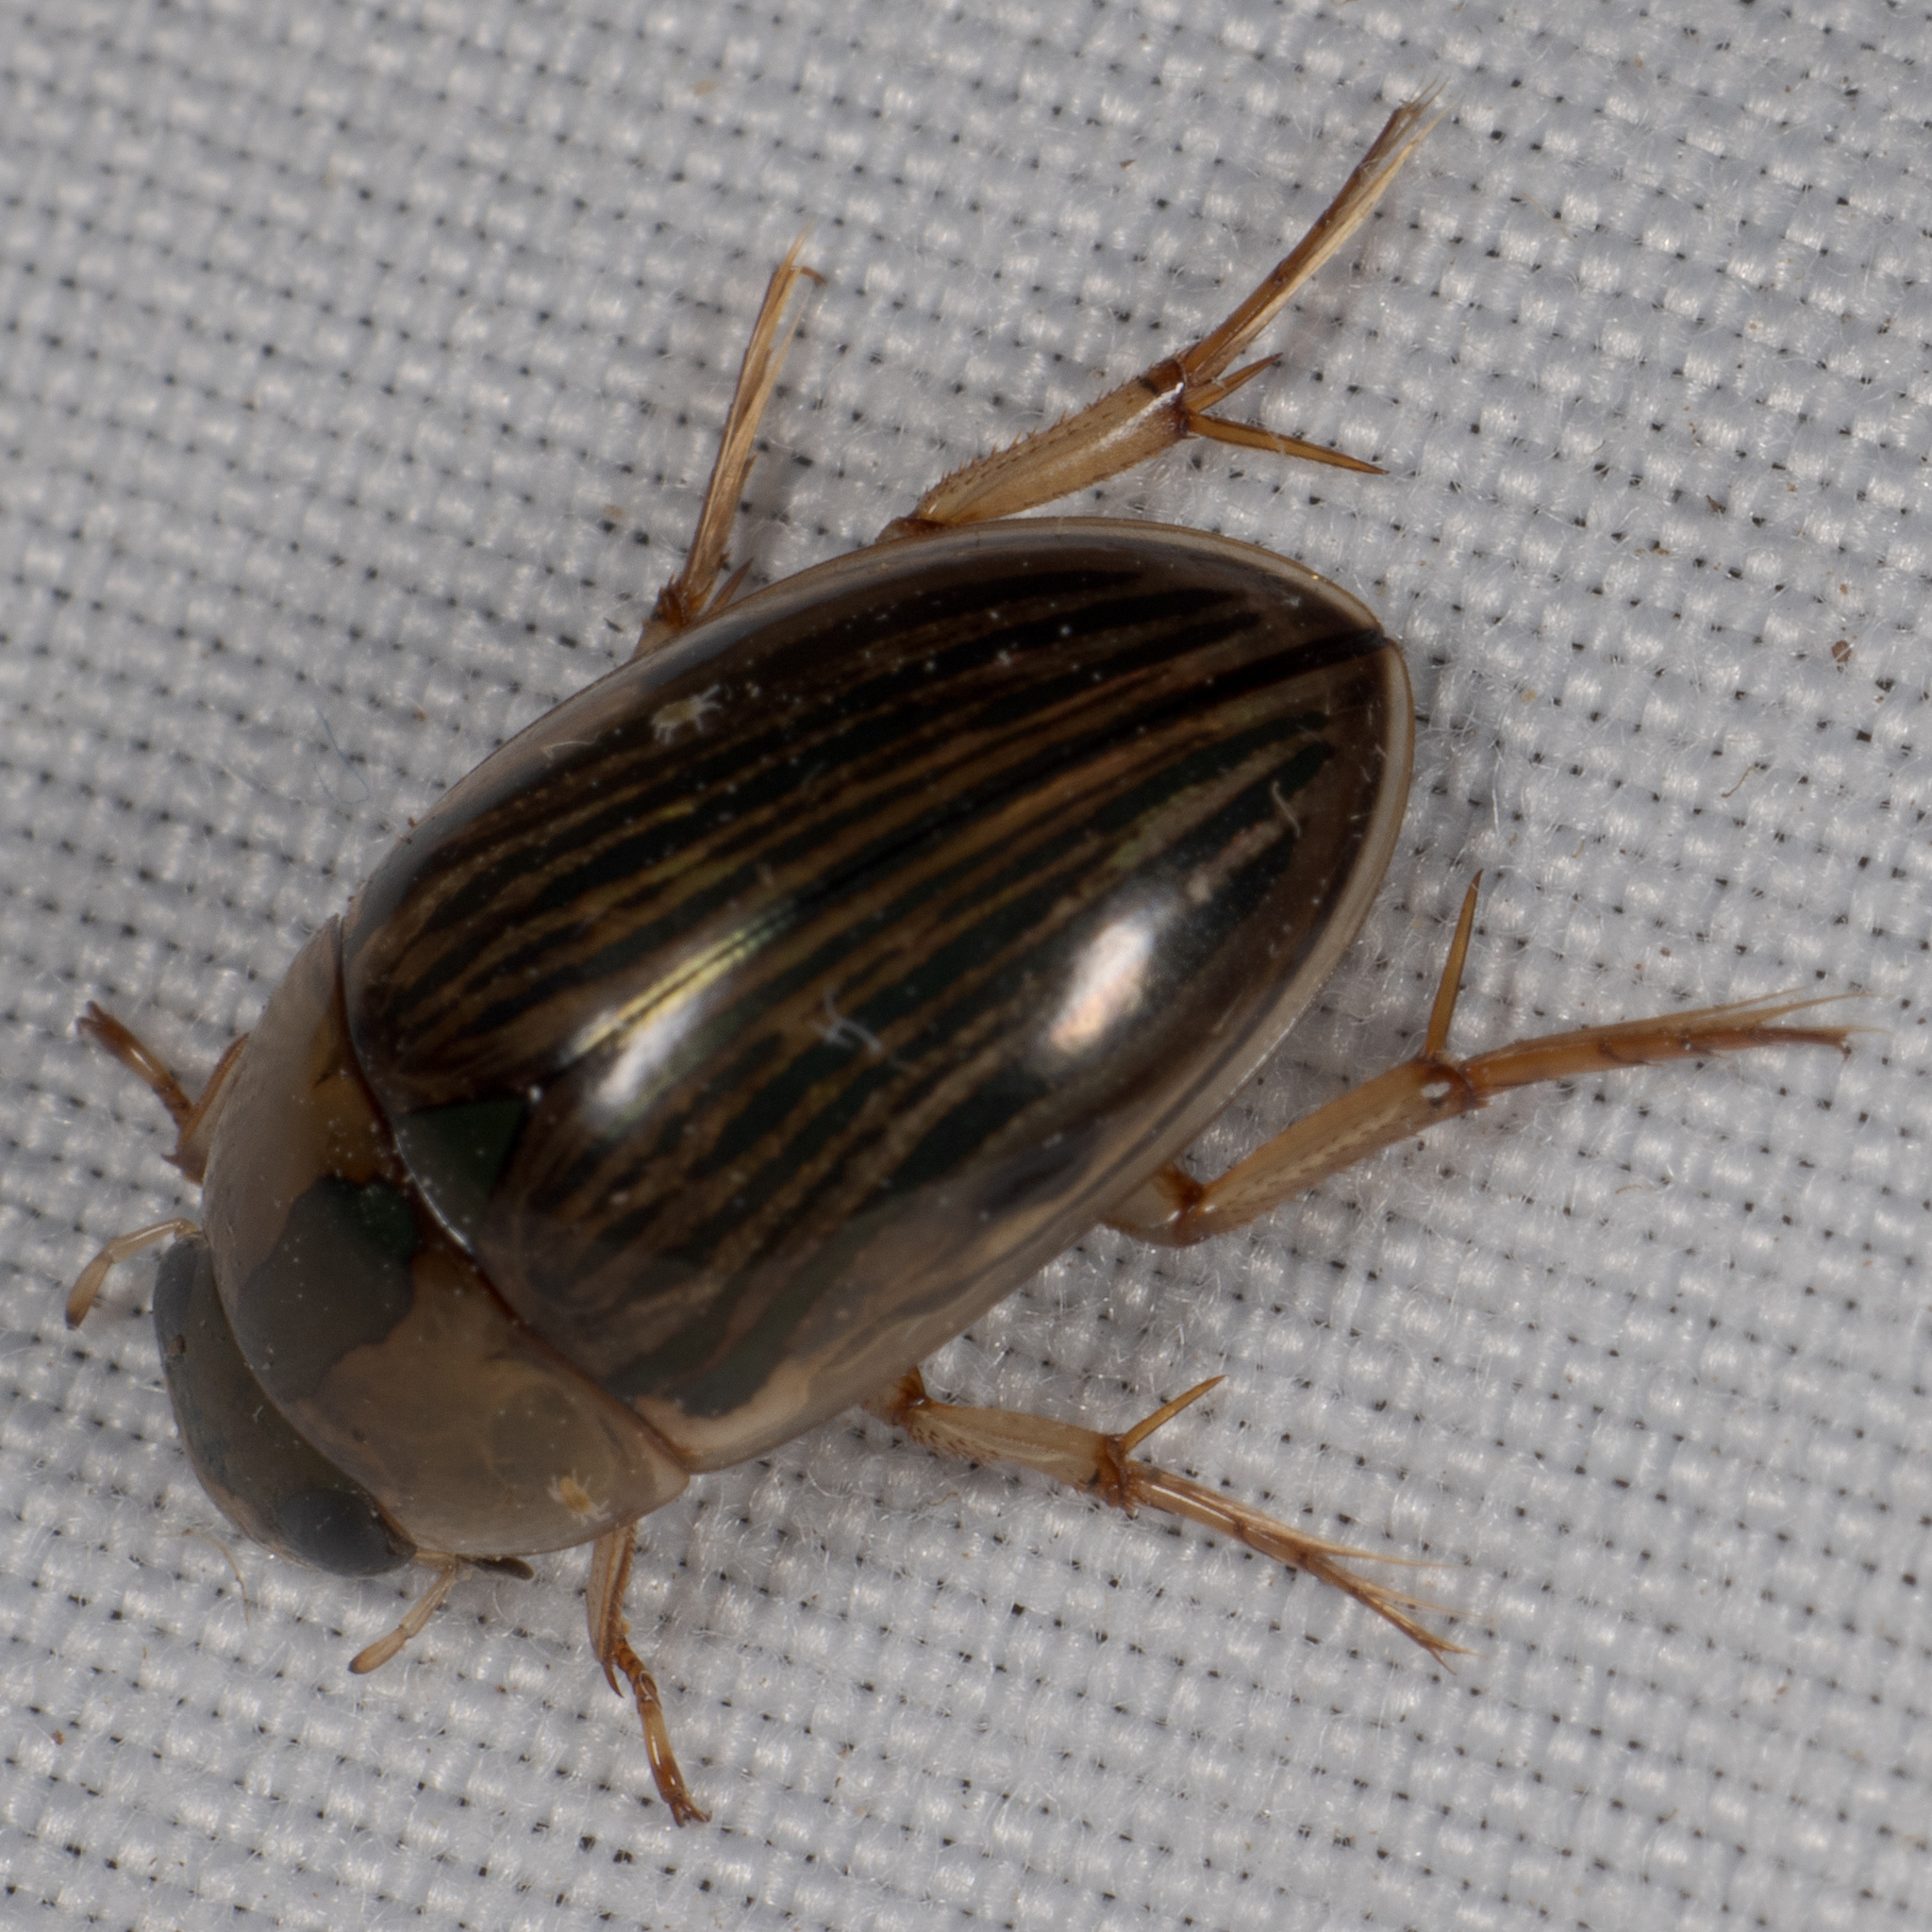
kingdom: Animalia
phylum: Arthropoda
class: Insecta
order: Coleoptera
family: Hydrophilidae
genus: Tropisternus
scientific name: Tropisternus collaris
